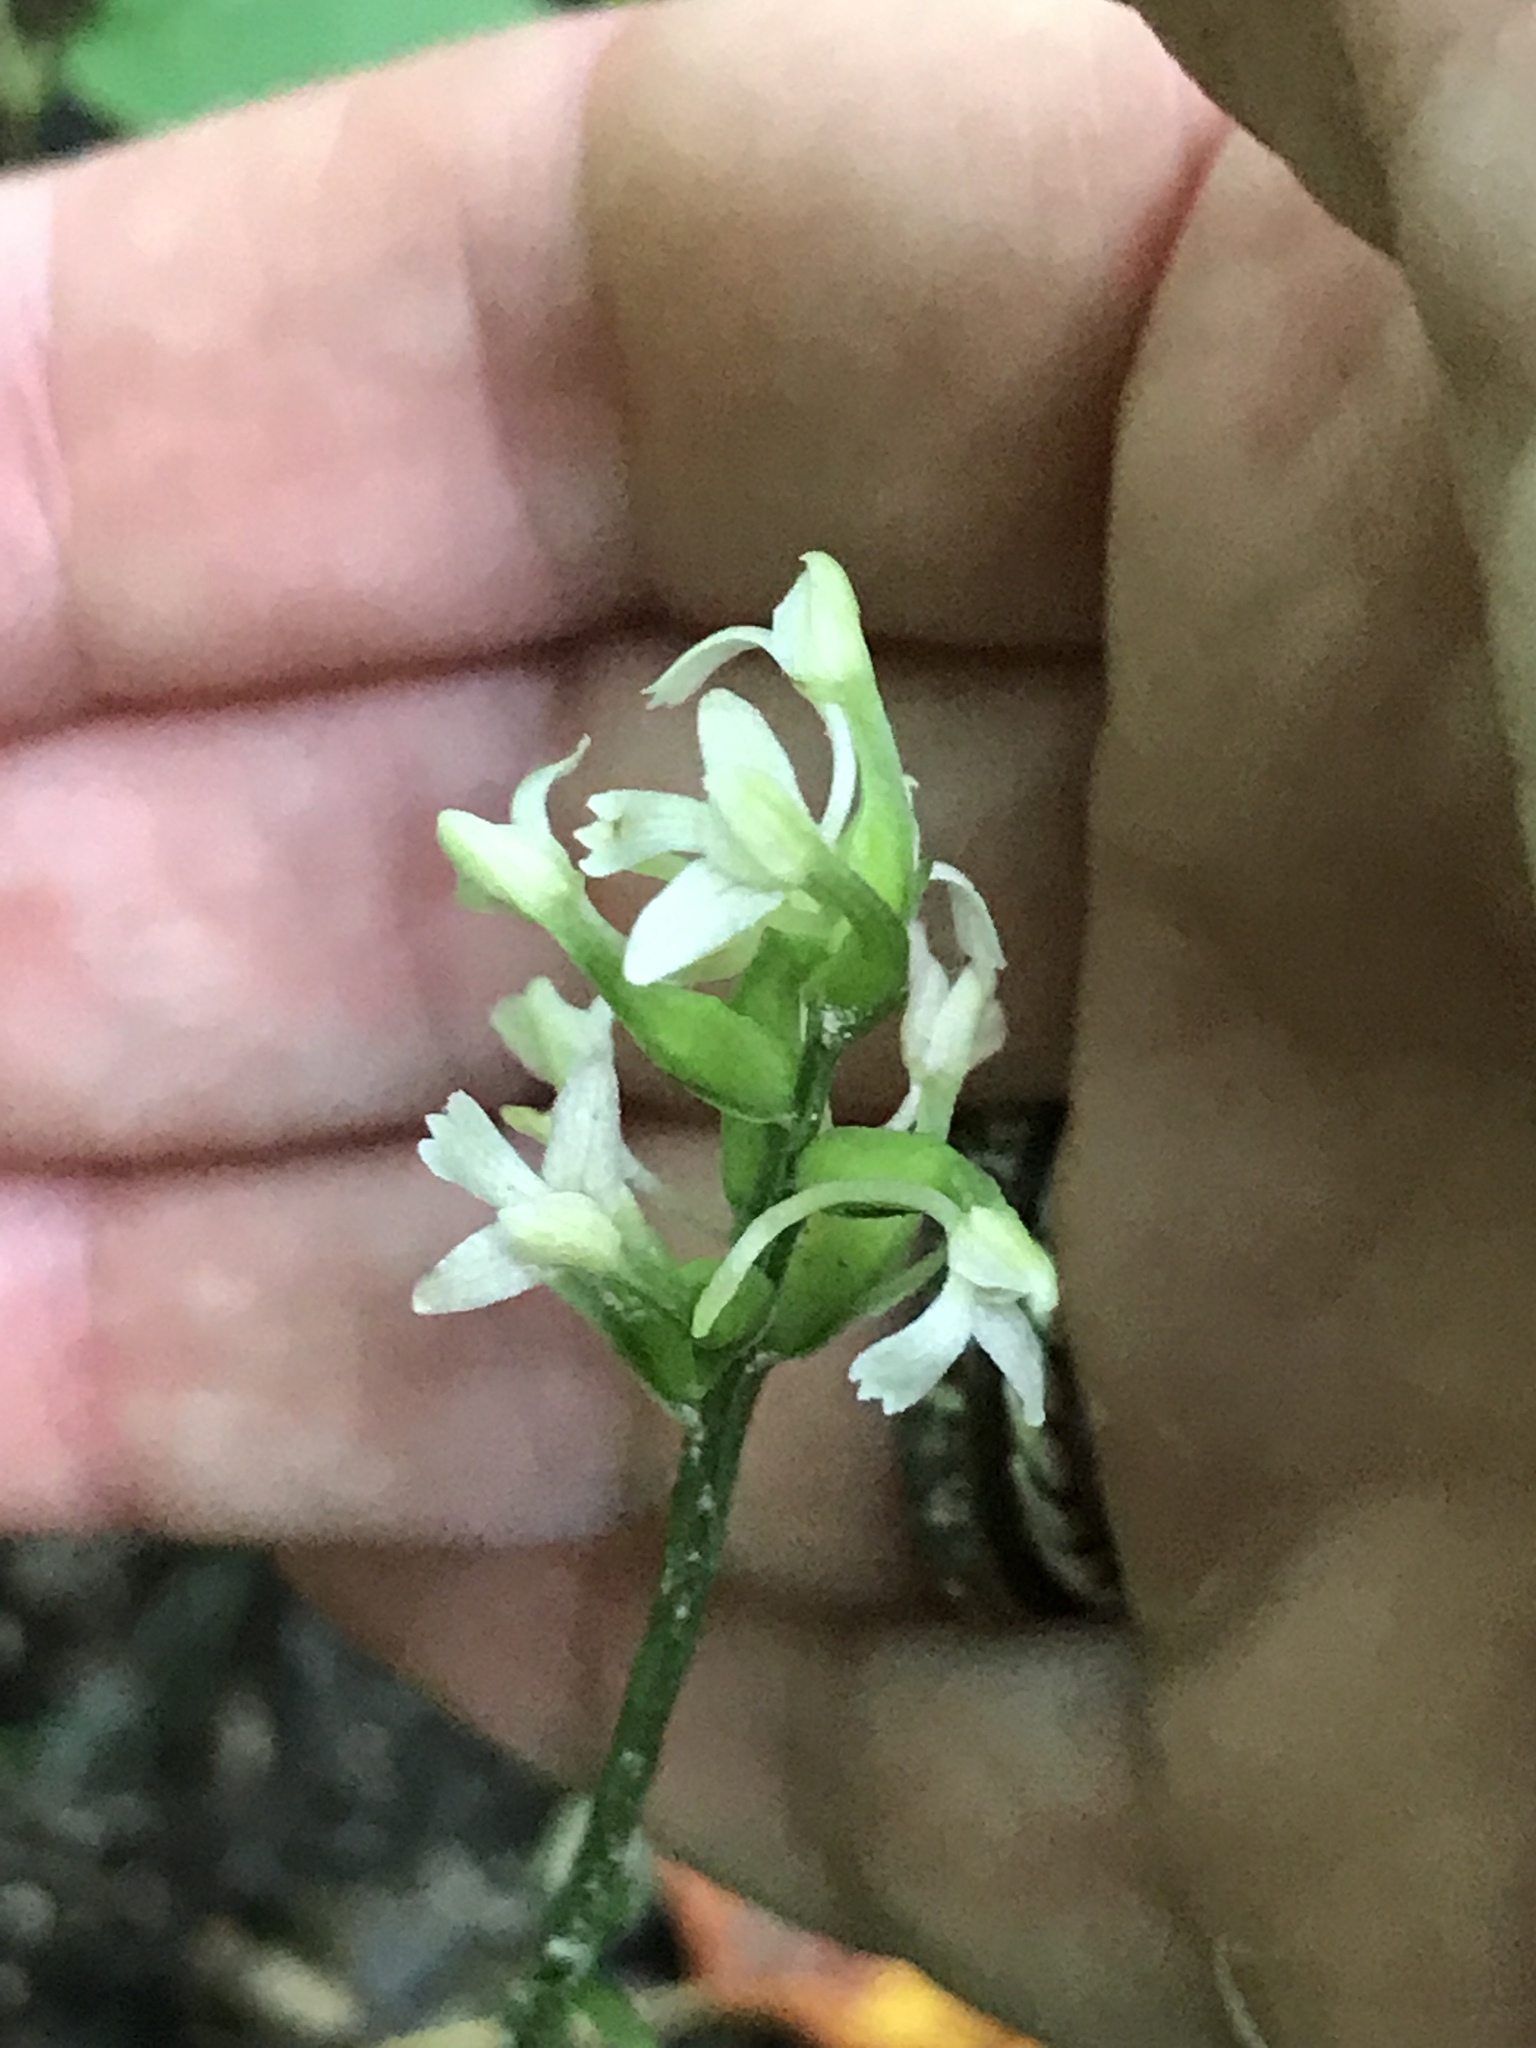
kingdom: Plantae
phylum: Tracheophyta
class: Liliopsida
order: Asparagales
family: Orchidaceae
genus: Platanthera
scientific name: Platanthera clavellata
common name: Club-spur orchid
